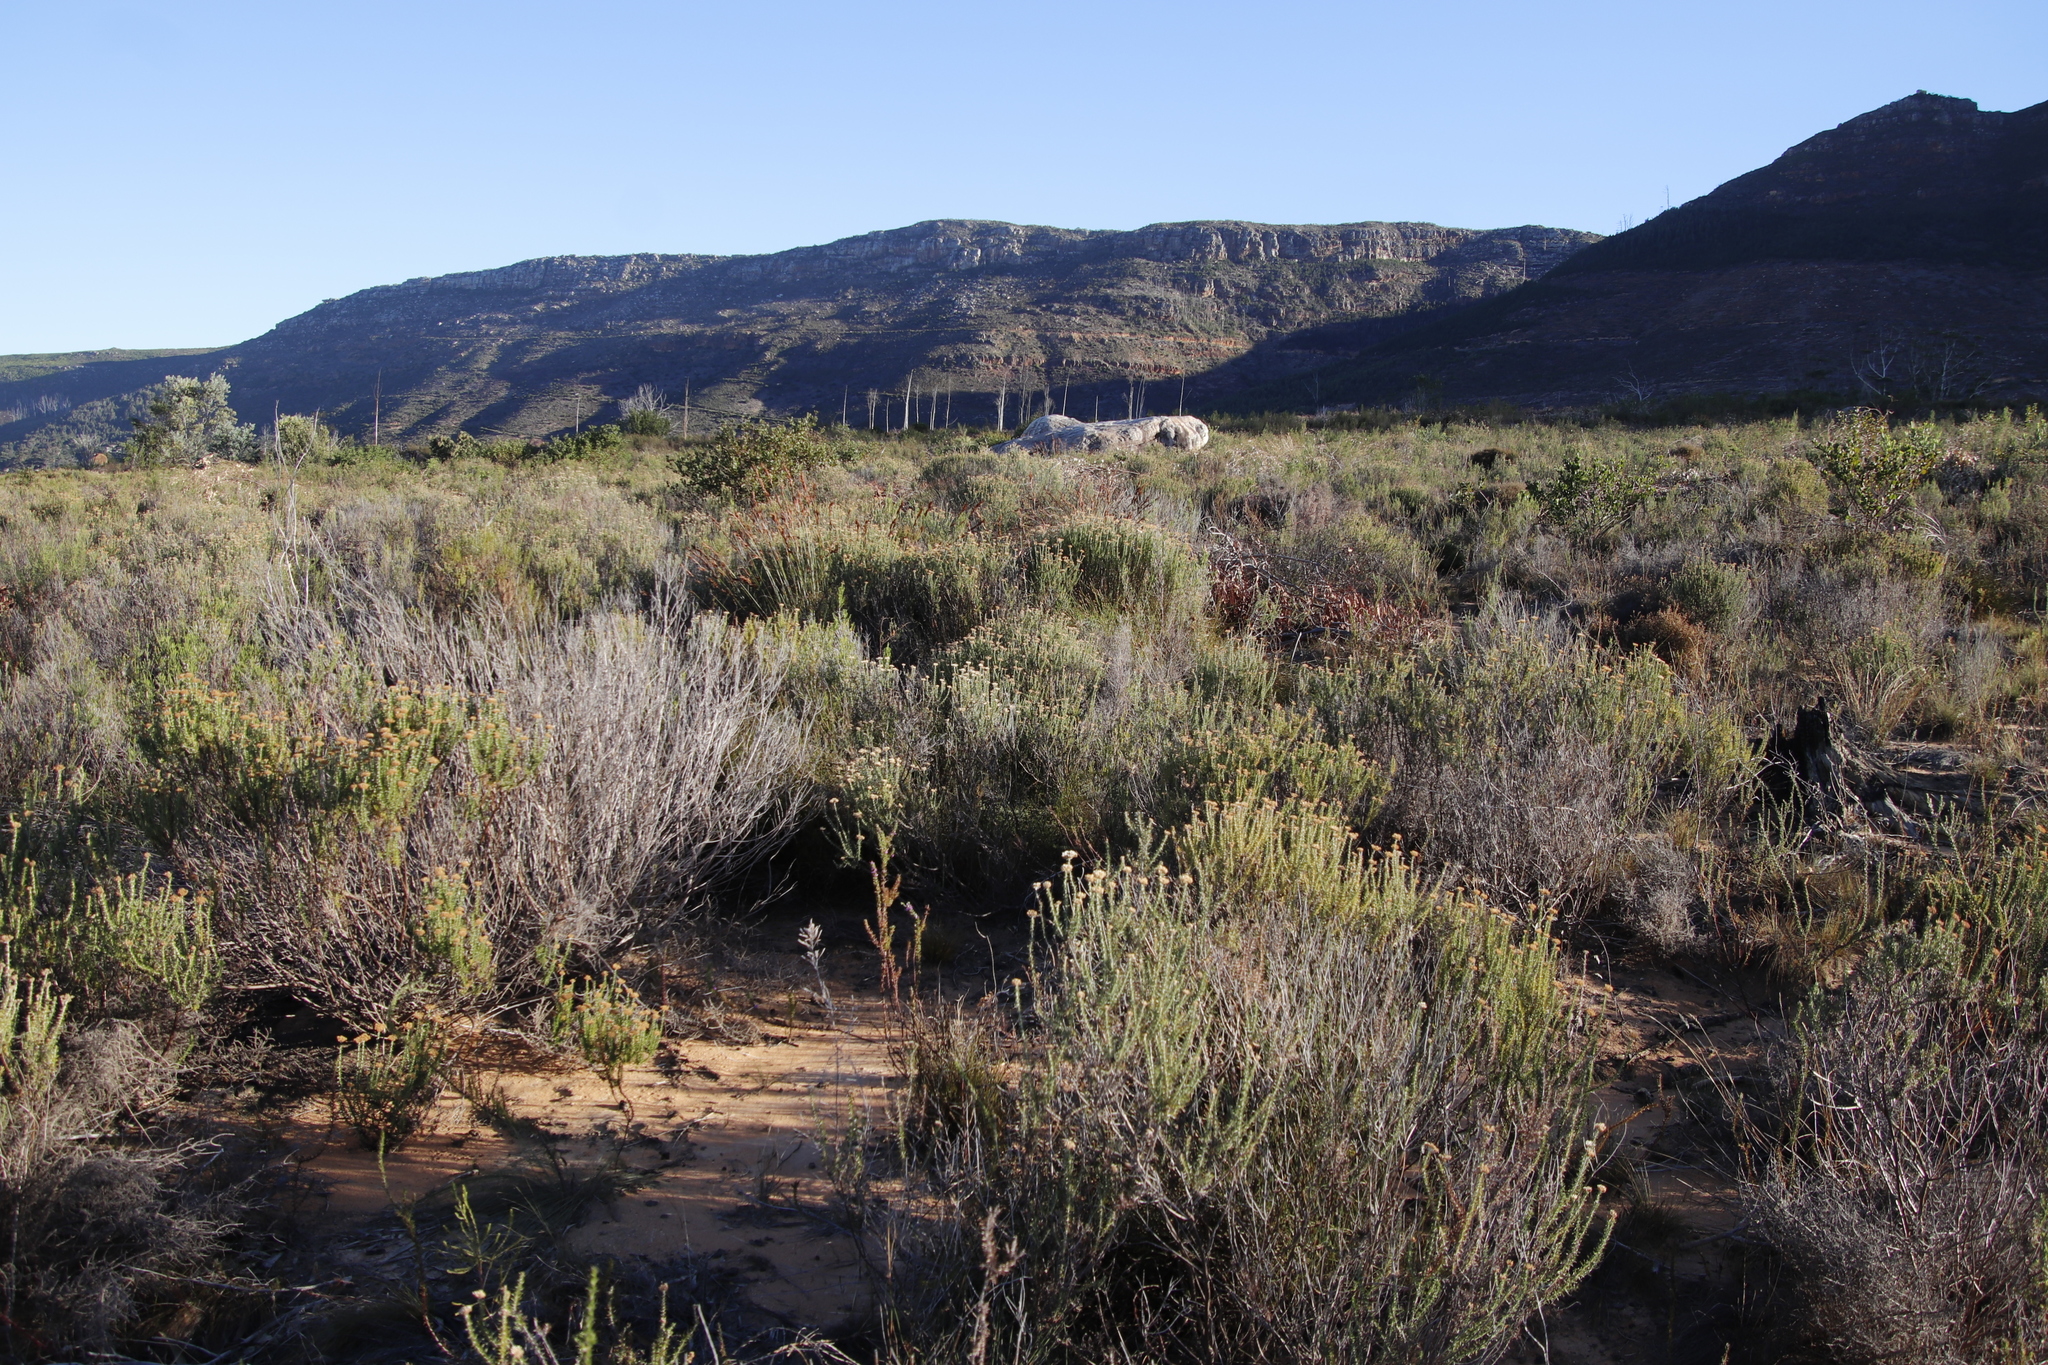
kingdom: Plantae
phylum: Tracheophyta
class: Magnoliopsida
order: Asterales
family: Asteraceae
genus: Metalasia
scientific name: Metalasia densa
